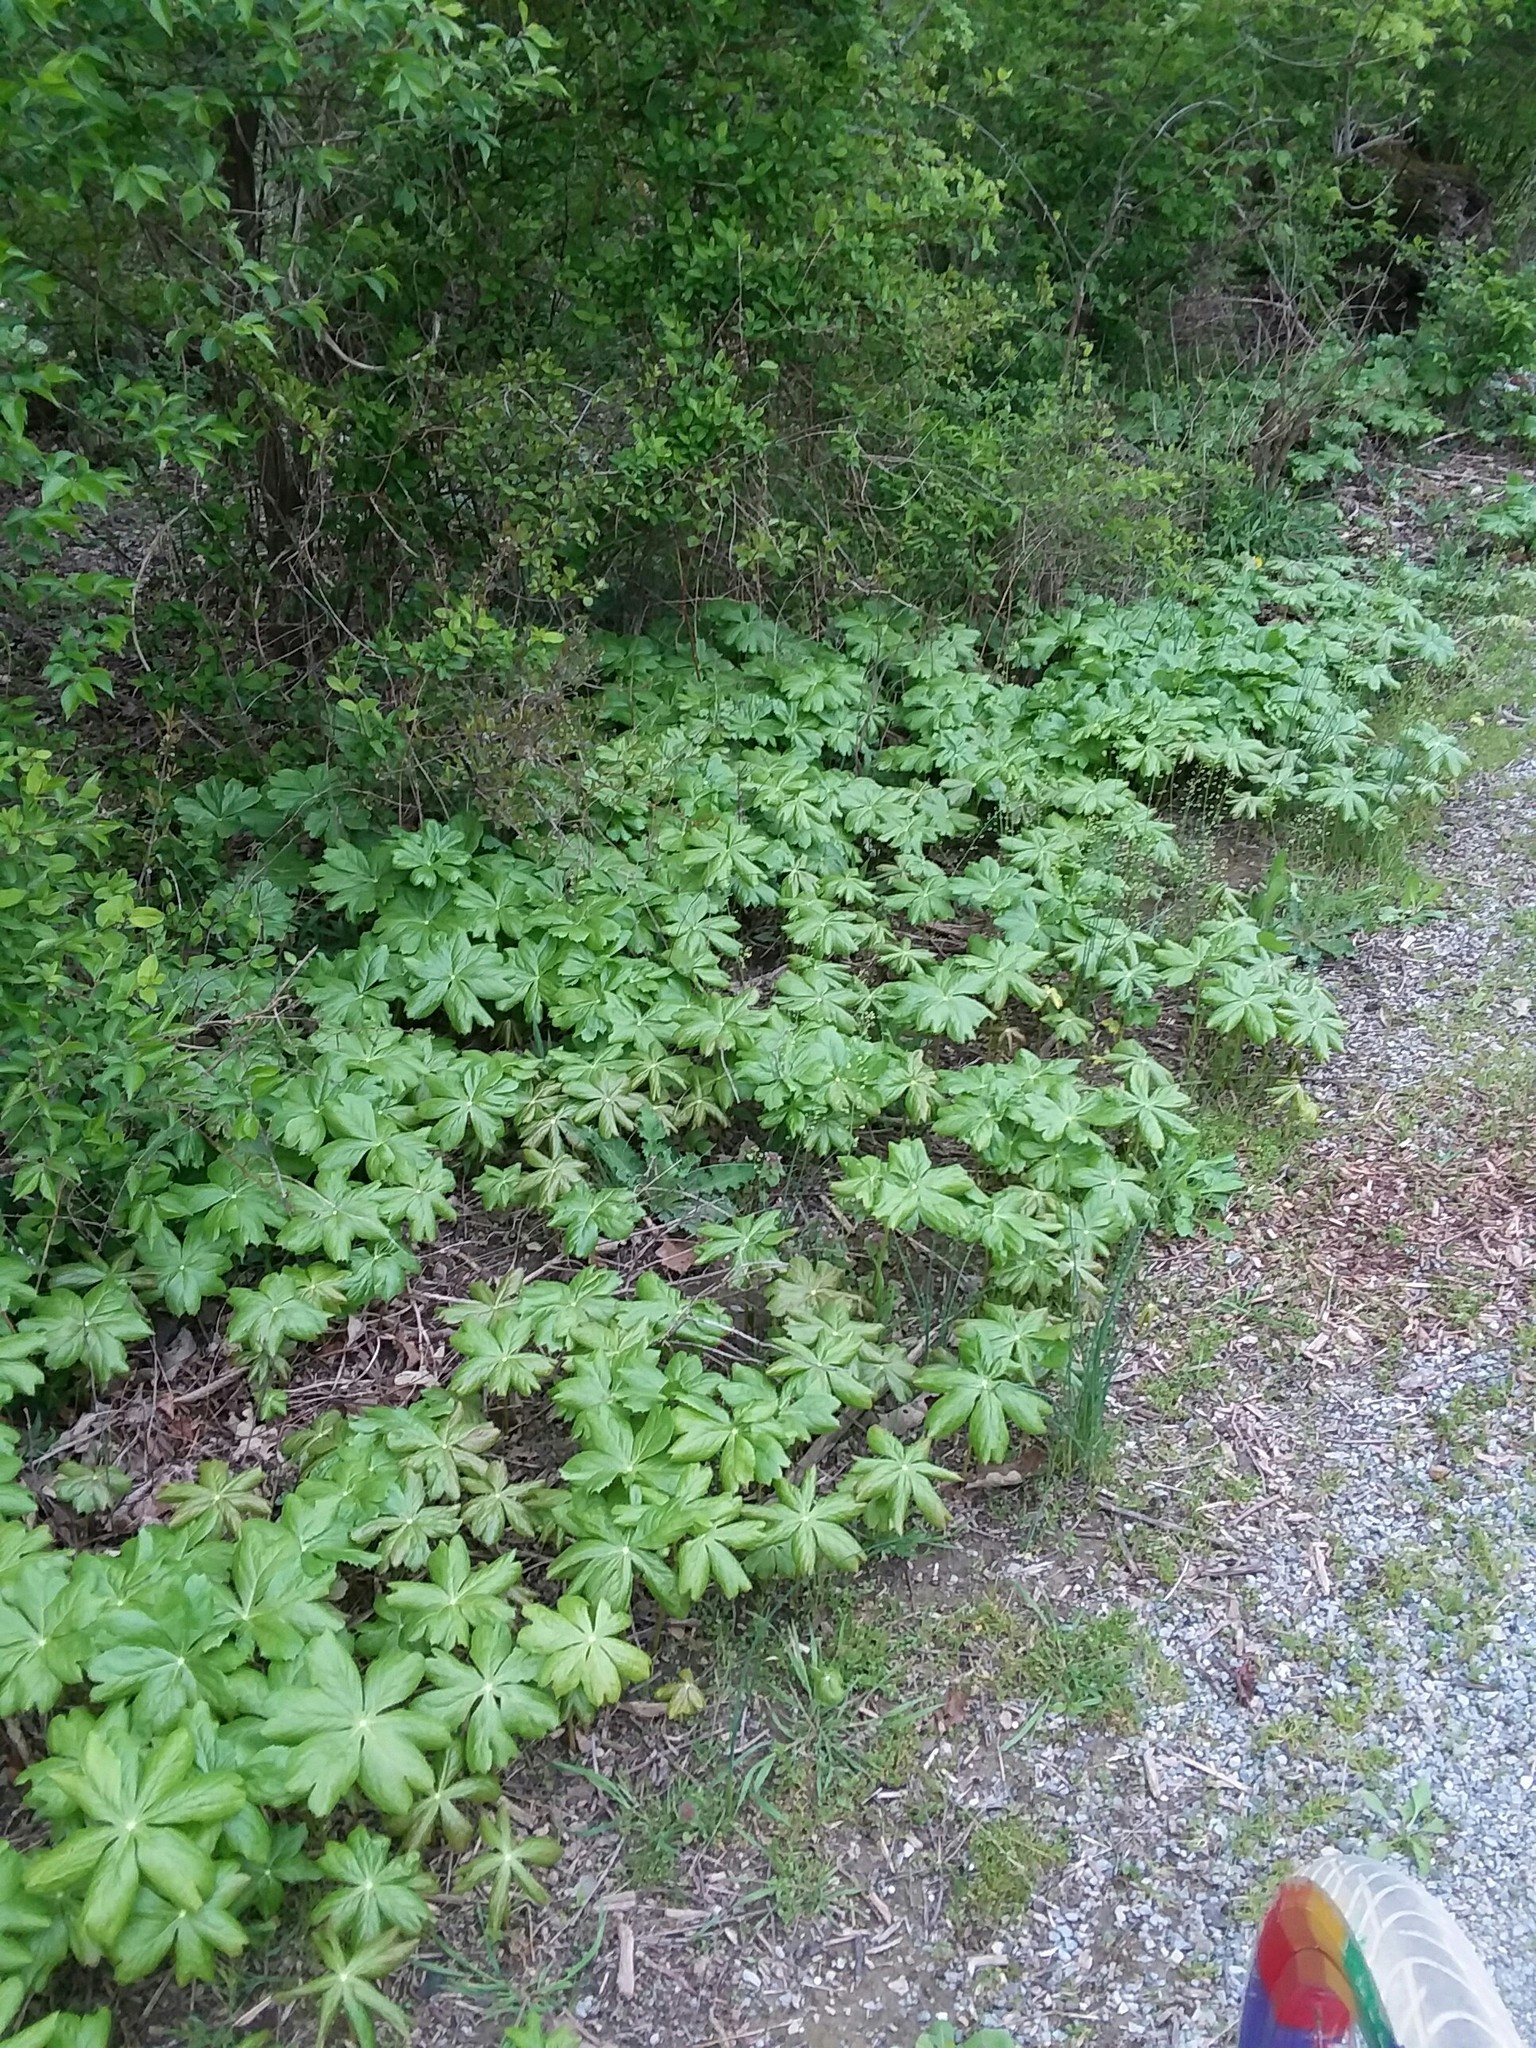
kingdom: Plantae
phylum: Tracheophyta
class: Magnoliopsida
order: Ranunculales
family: Berberidaceae
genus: Podophyllum
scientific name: Podophyllum peltatum
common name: Wild mandrake
